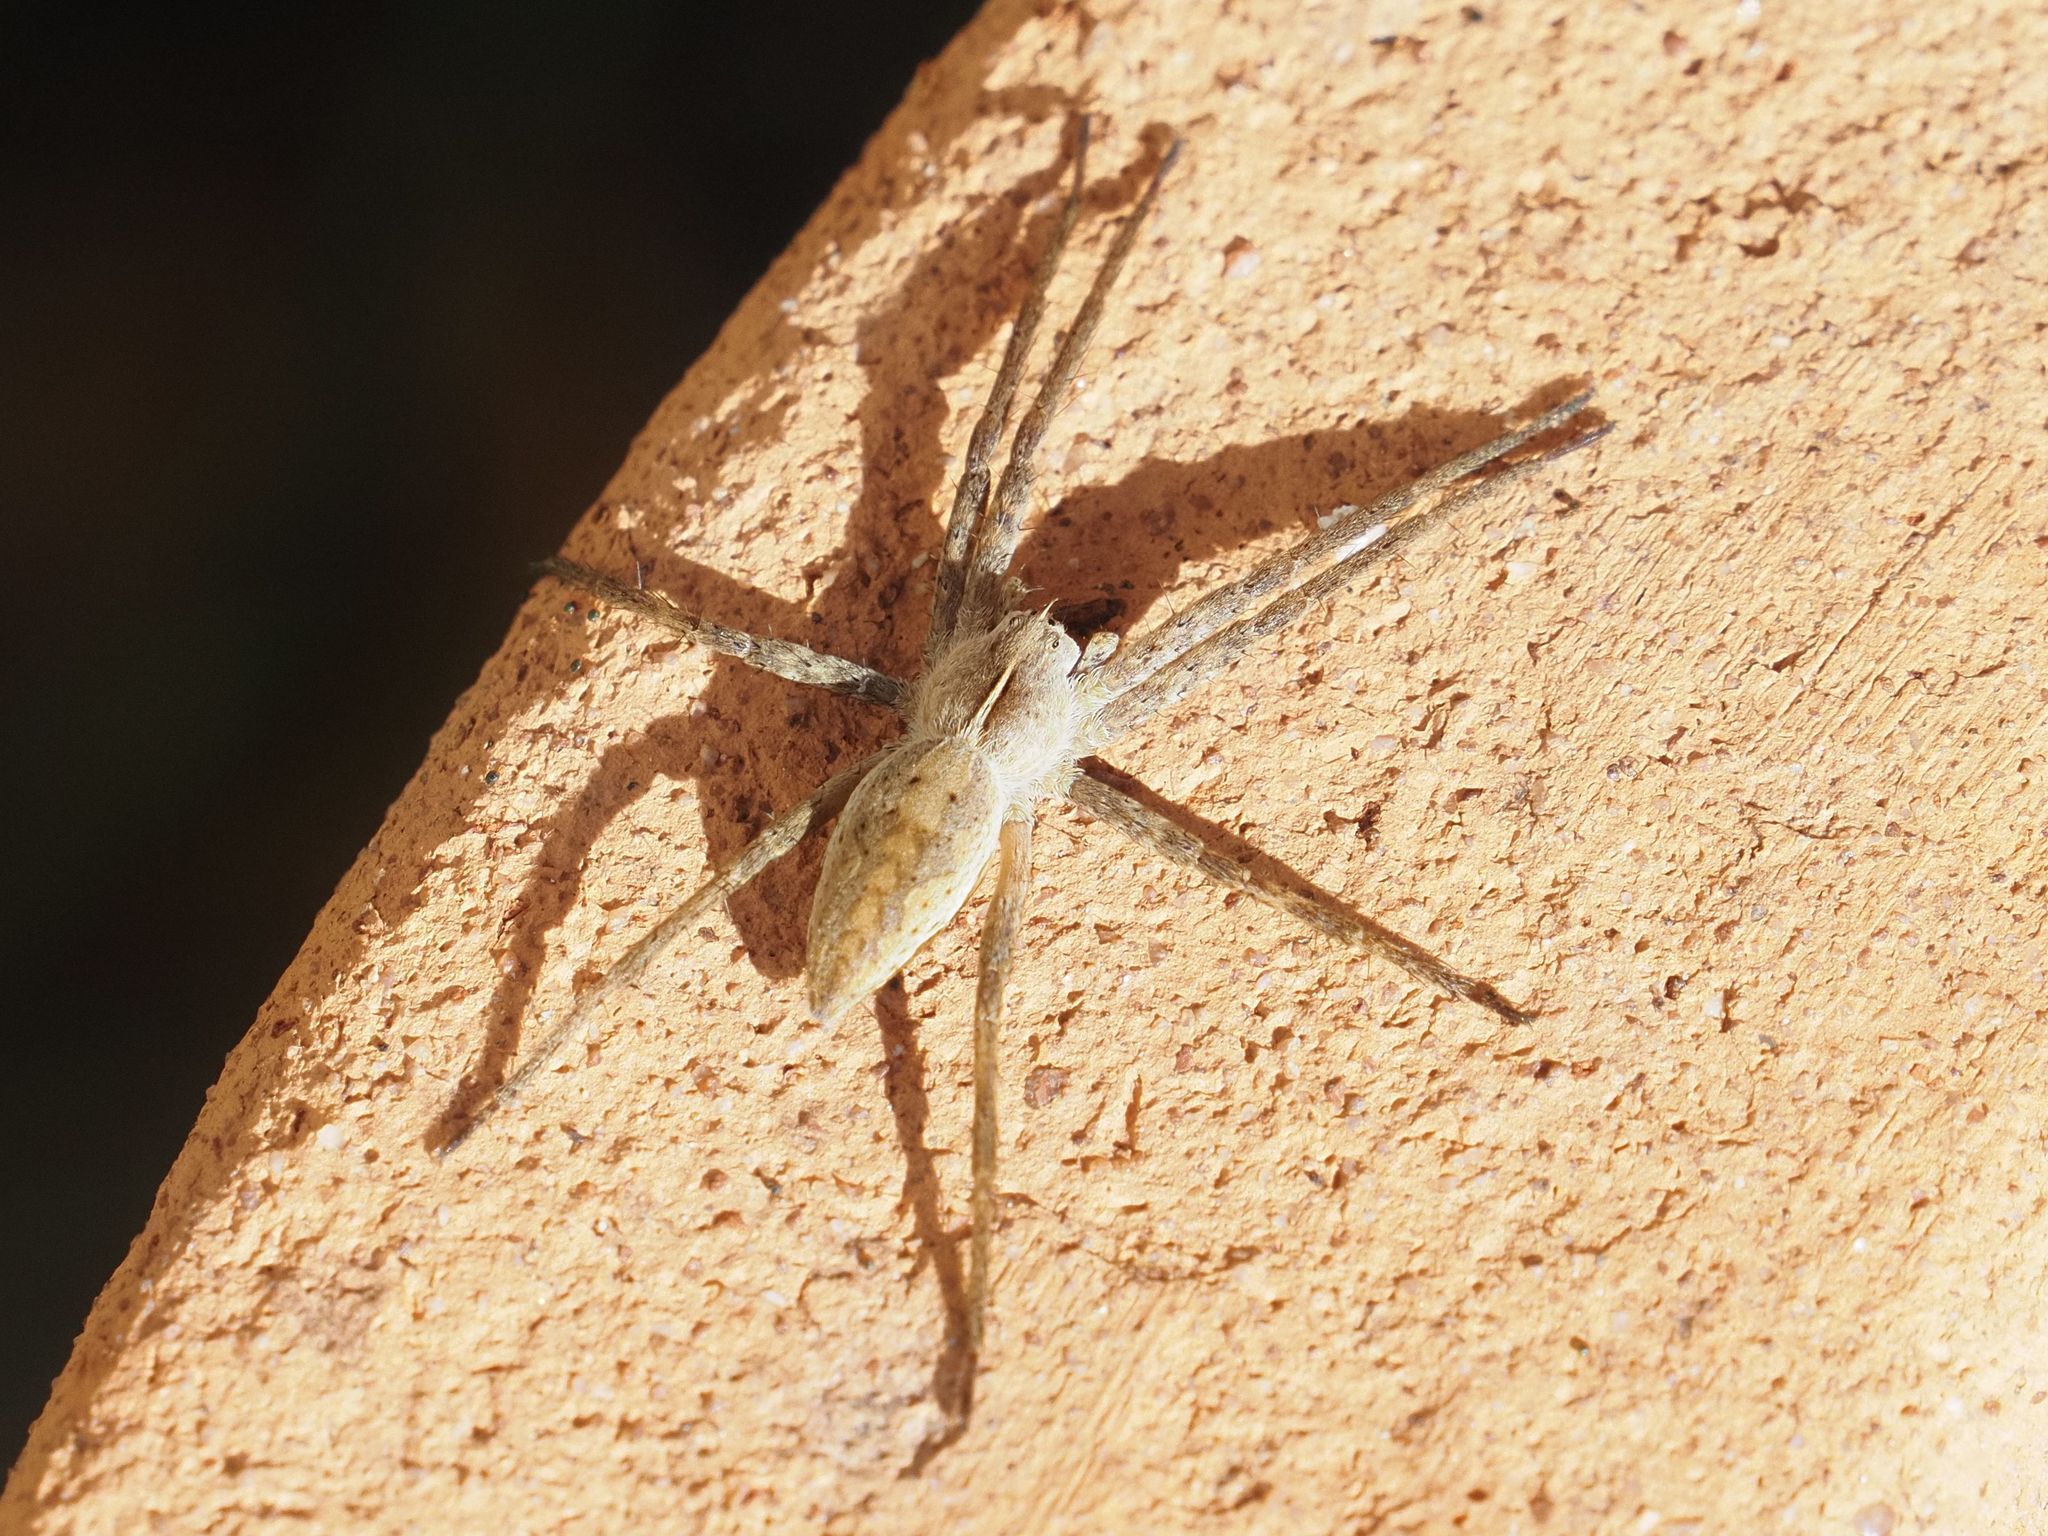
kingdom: Animalia
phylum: Arthropoda
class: Arachnida
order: Araneae
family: Pisauridae
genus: Pisaura
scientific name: Pisaura mirabilis
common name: Tent spider
